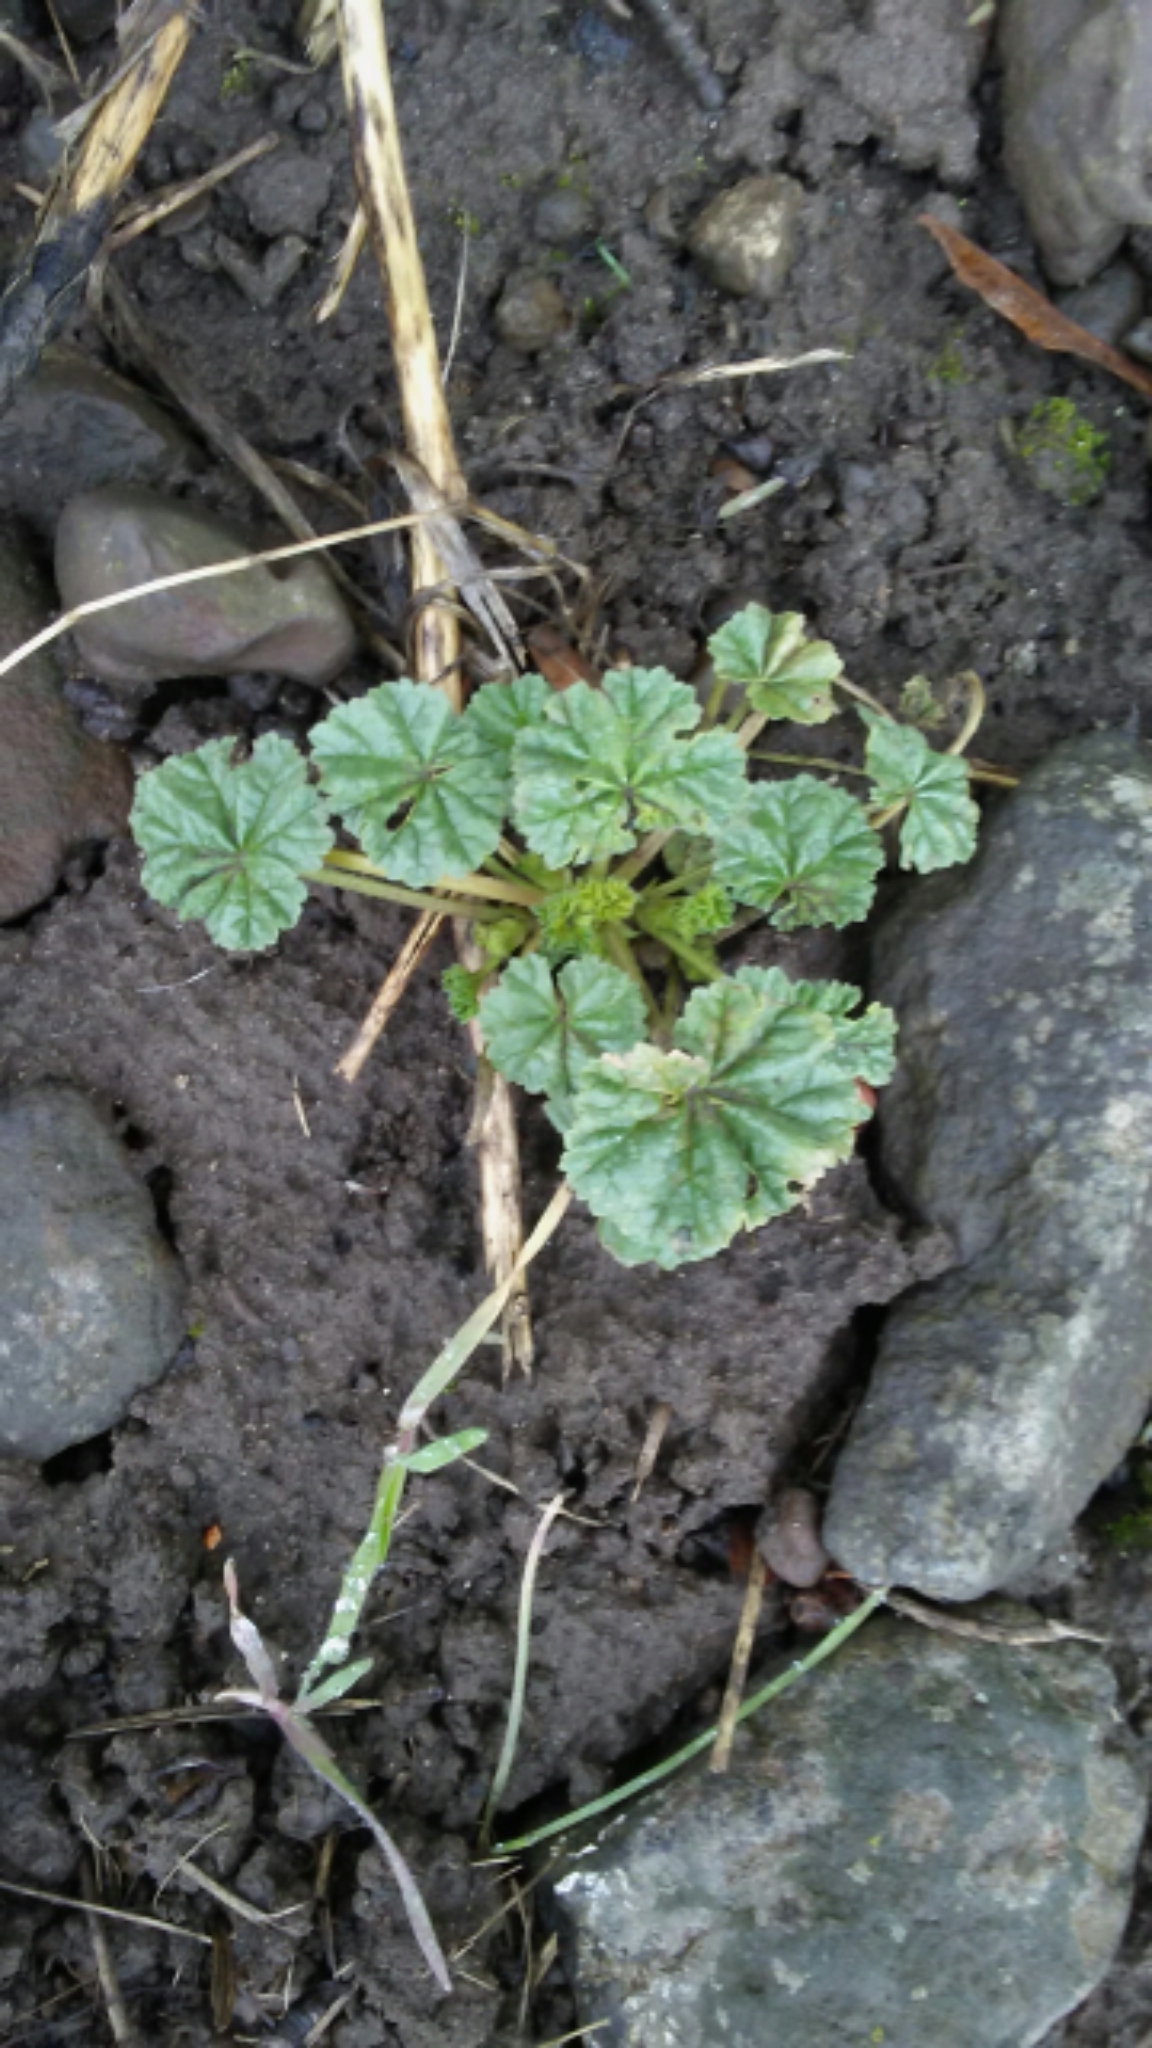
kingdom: Plantae
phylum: Tracheophyta
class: Magnoliopsida
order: Malvales
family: Malvaceae
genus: Malva
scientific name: Malva neglecta
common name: Common mallow
